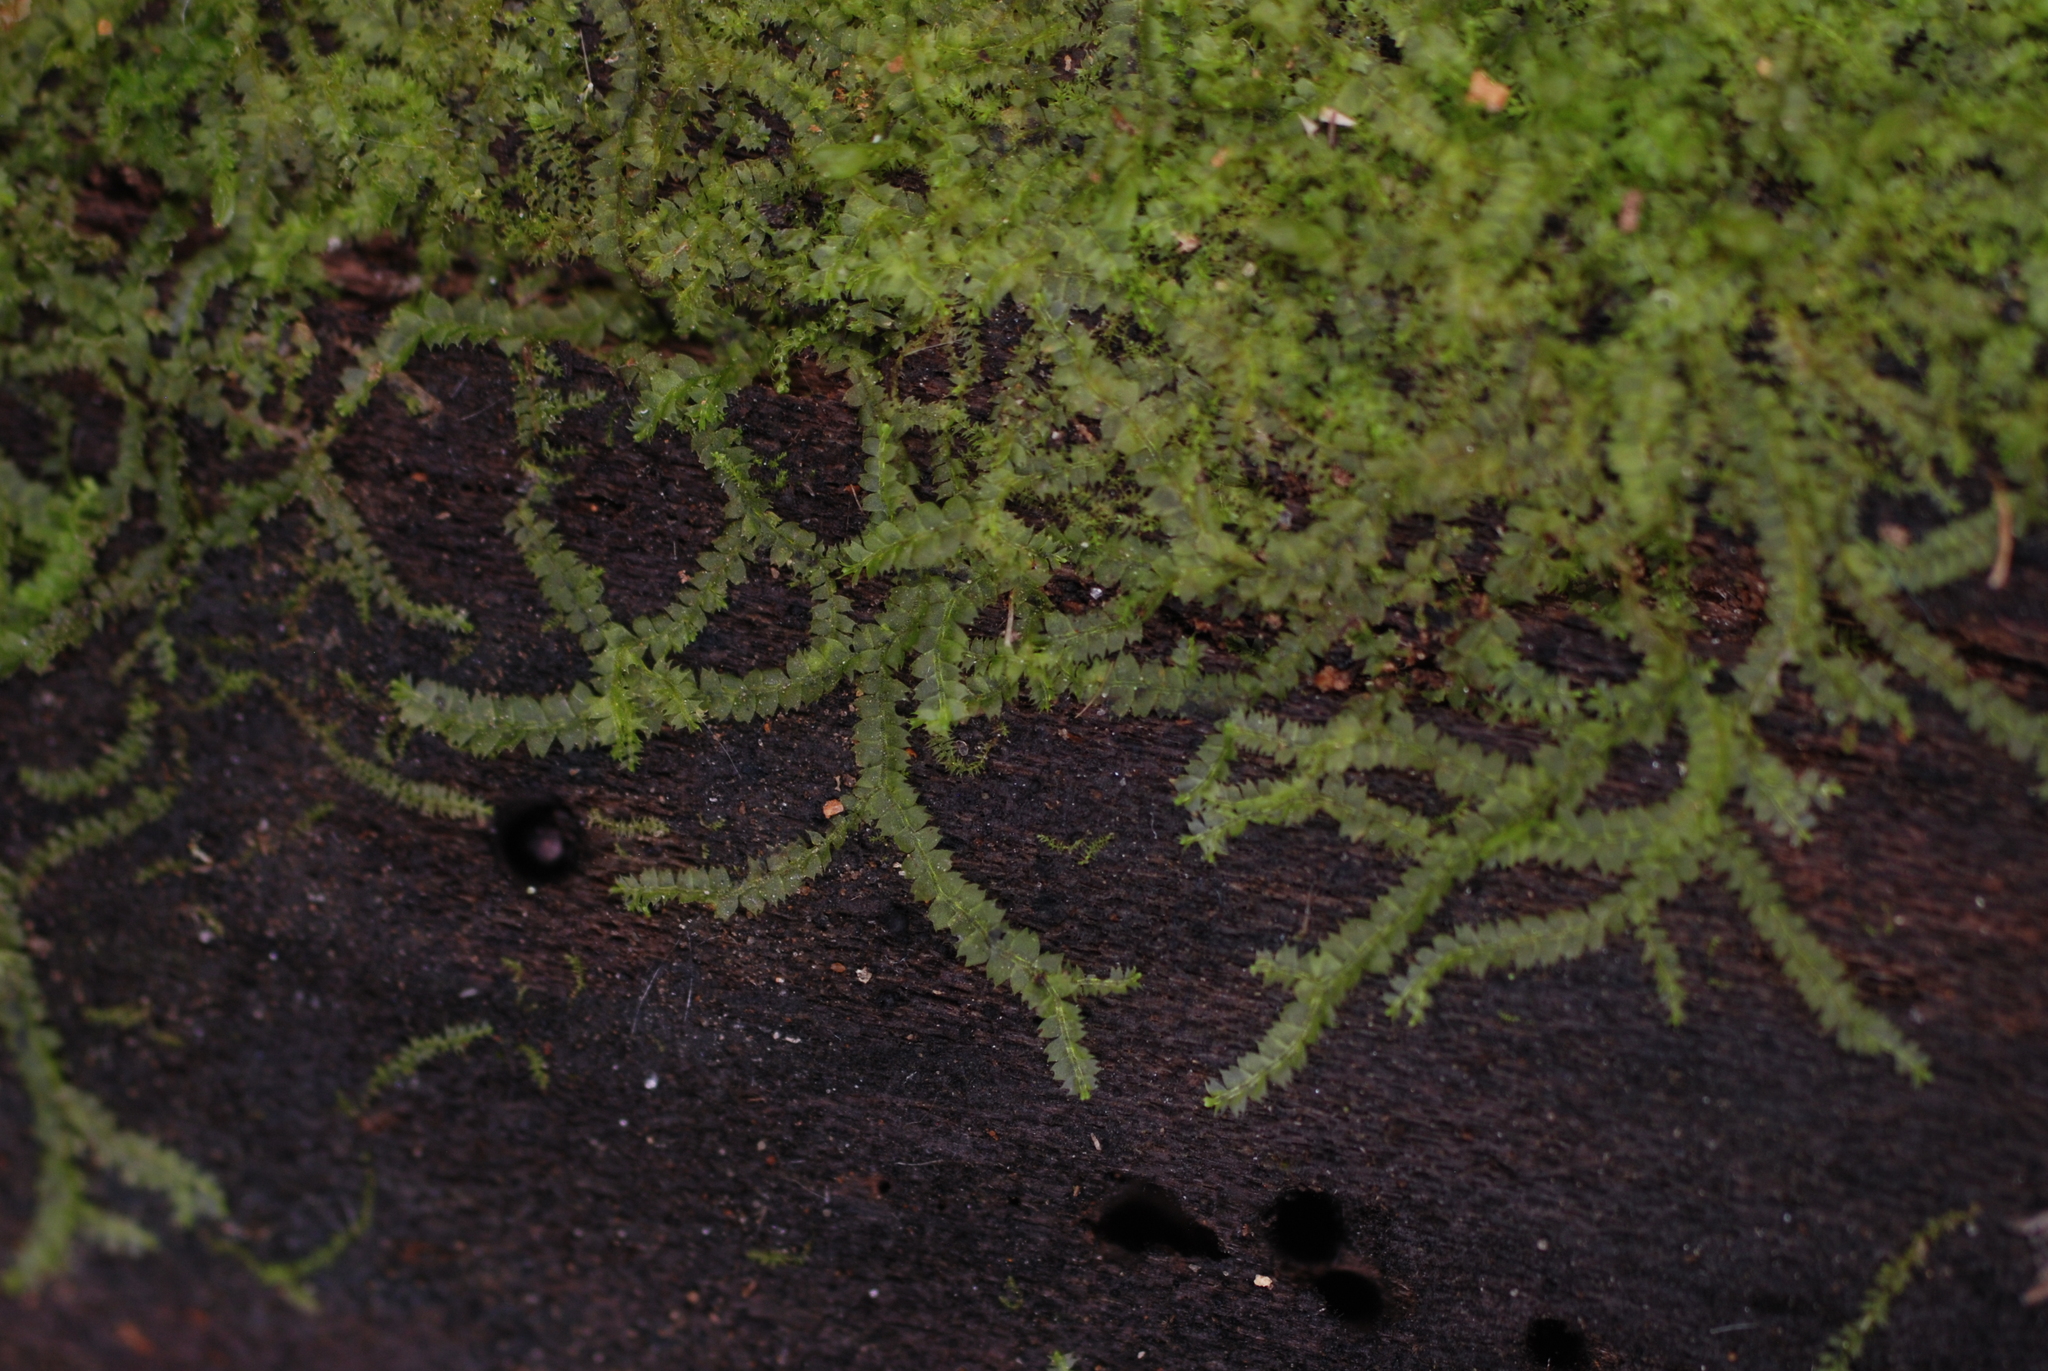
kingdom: Plantae
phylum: Marchantiophyta
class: Jungermanniopsida
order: Jungermanniales
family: Lophocoleaceae
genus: Lophocolea
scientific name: Lophocolea heterophylla
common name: Variable-leaved crestwort
